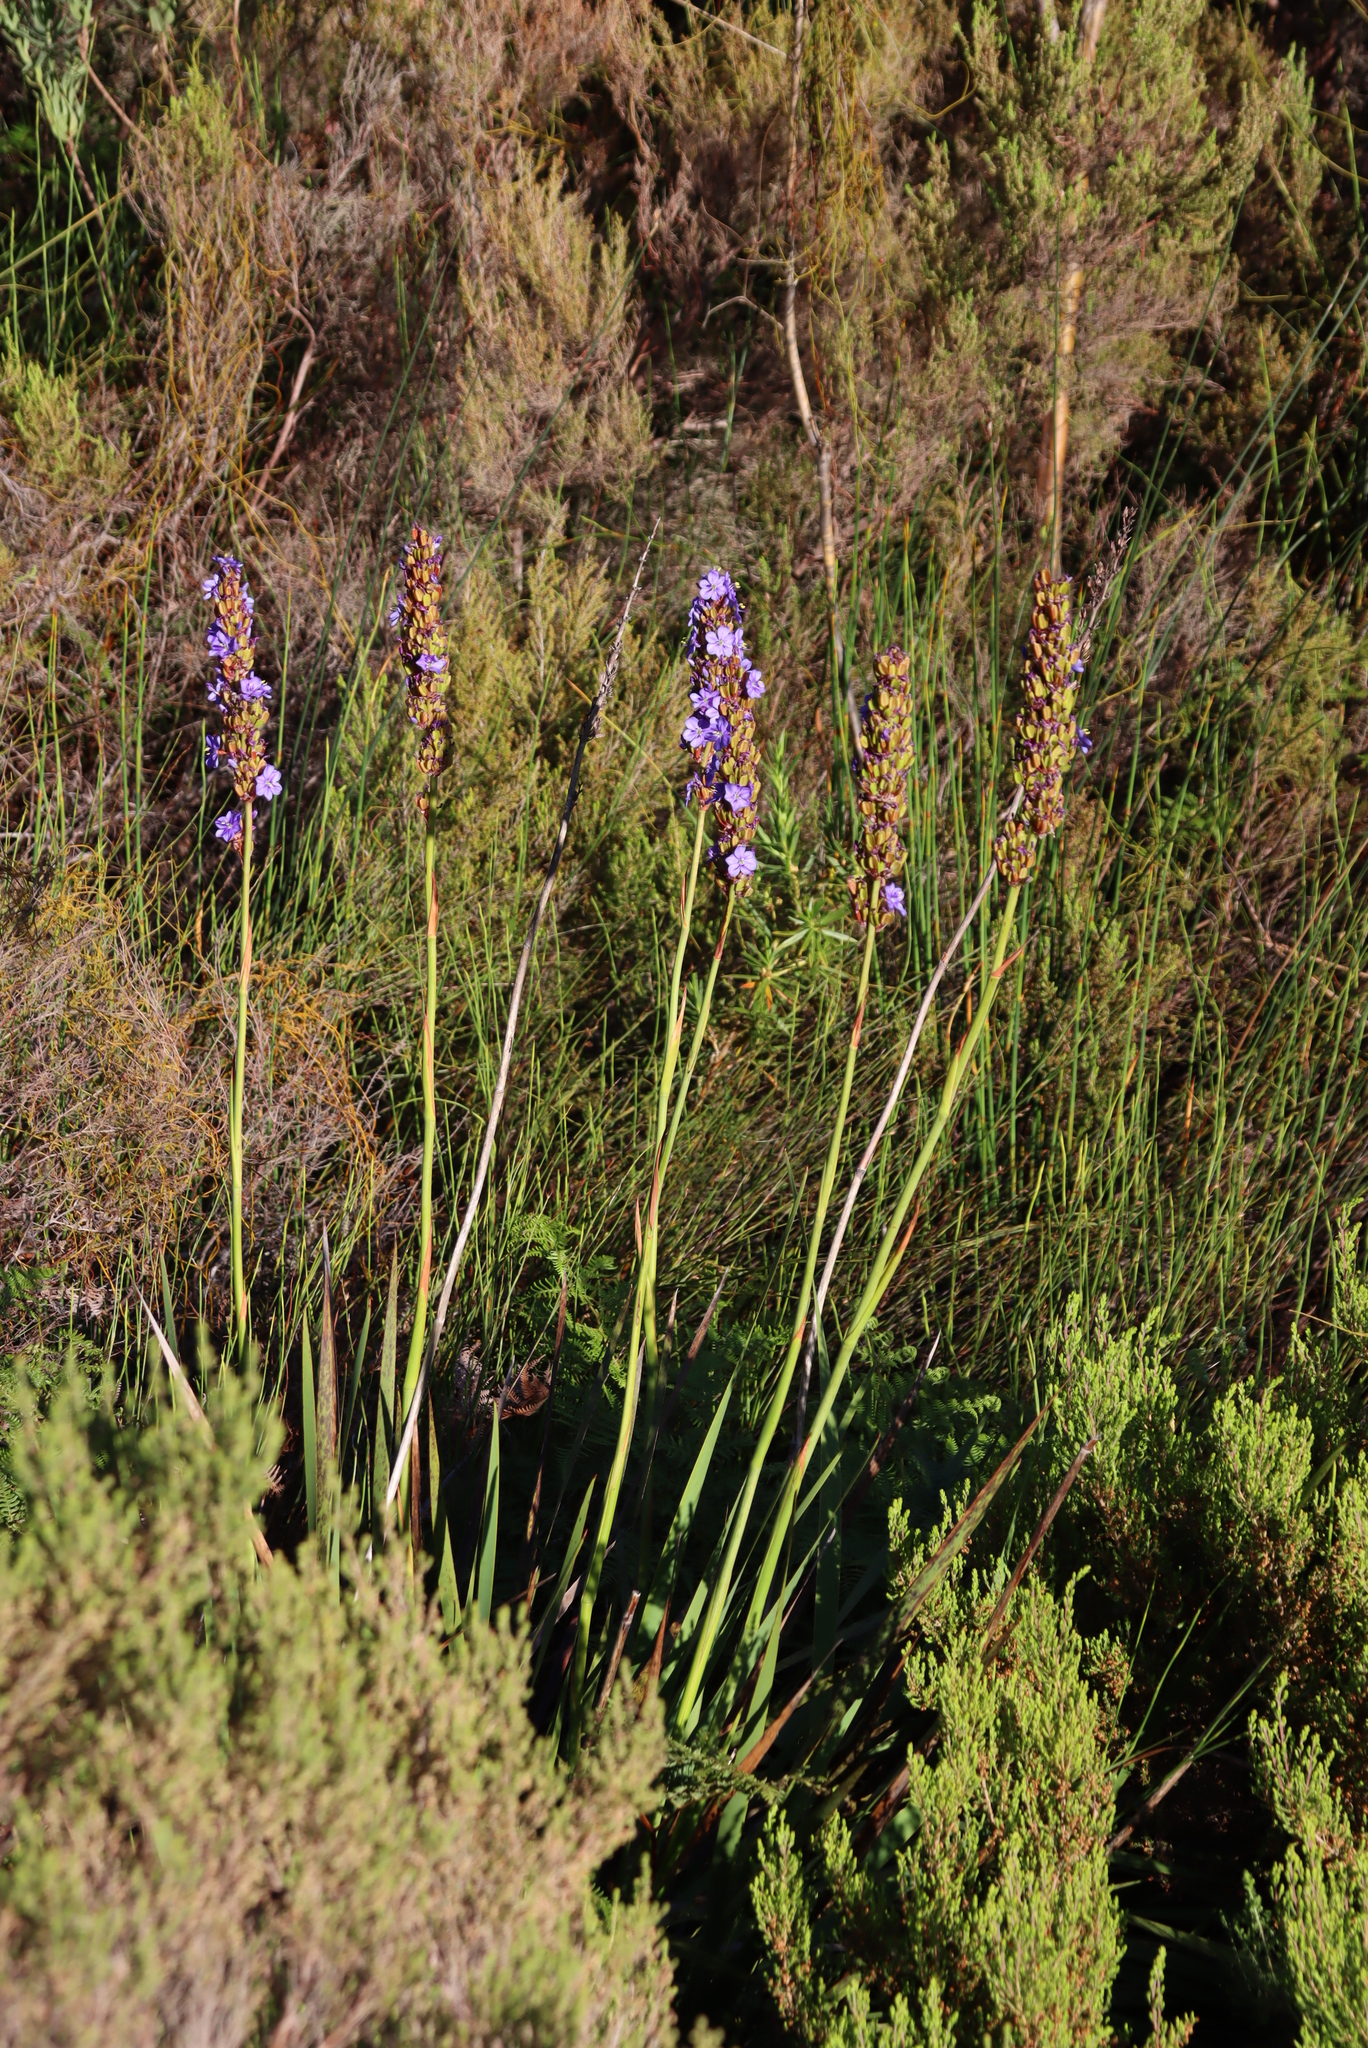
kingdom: Plantae
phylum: Tracheophyta
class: Liliopsida
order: Asparagales
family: Iridaceae
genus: Aristea
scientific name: Aristea capitata
